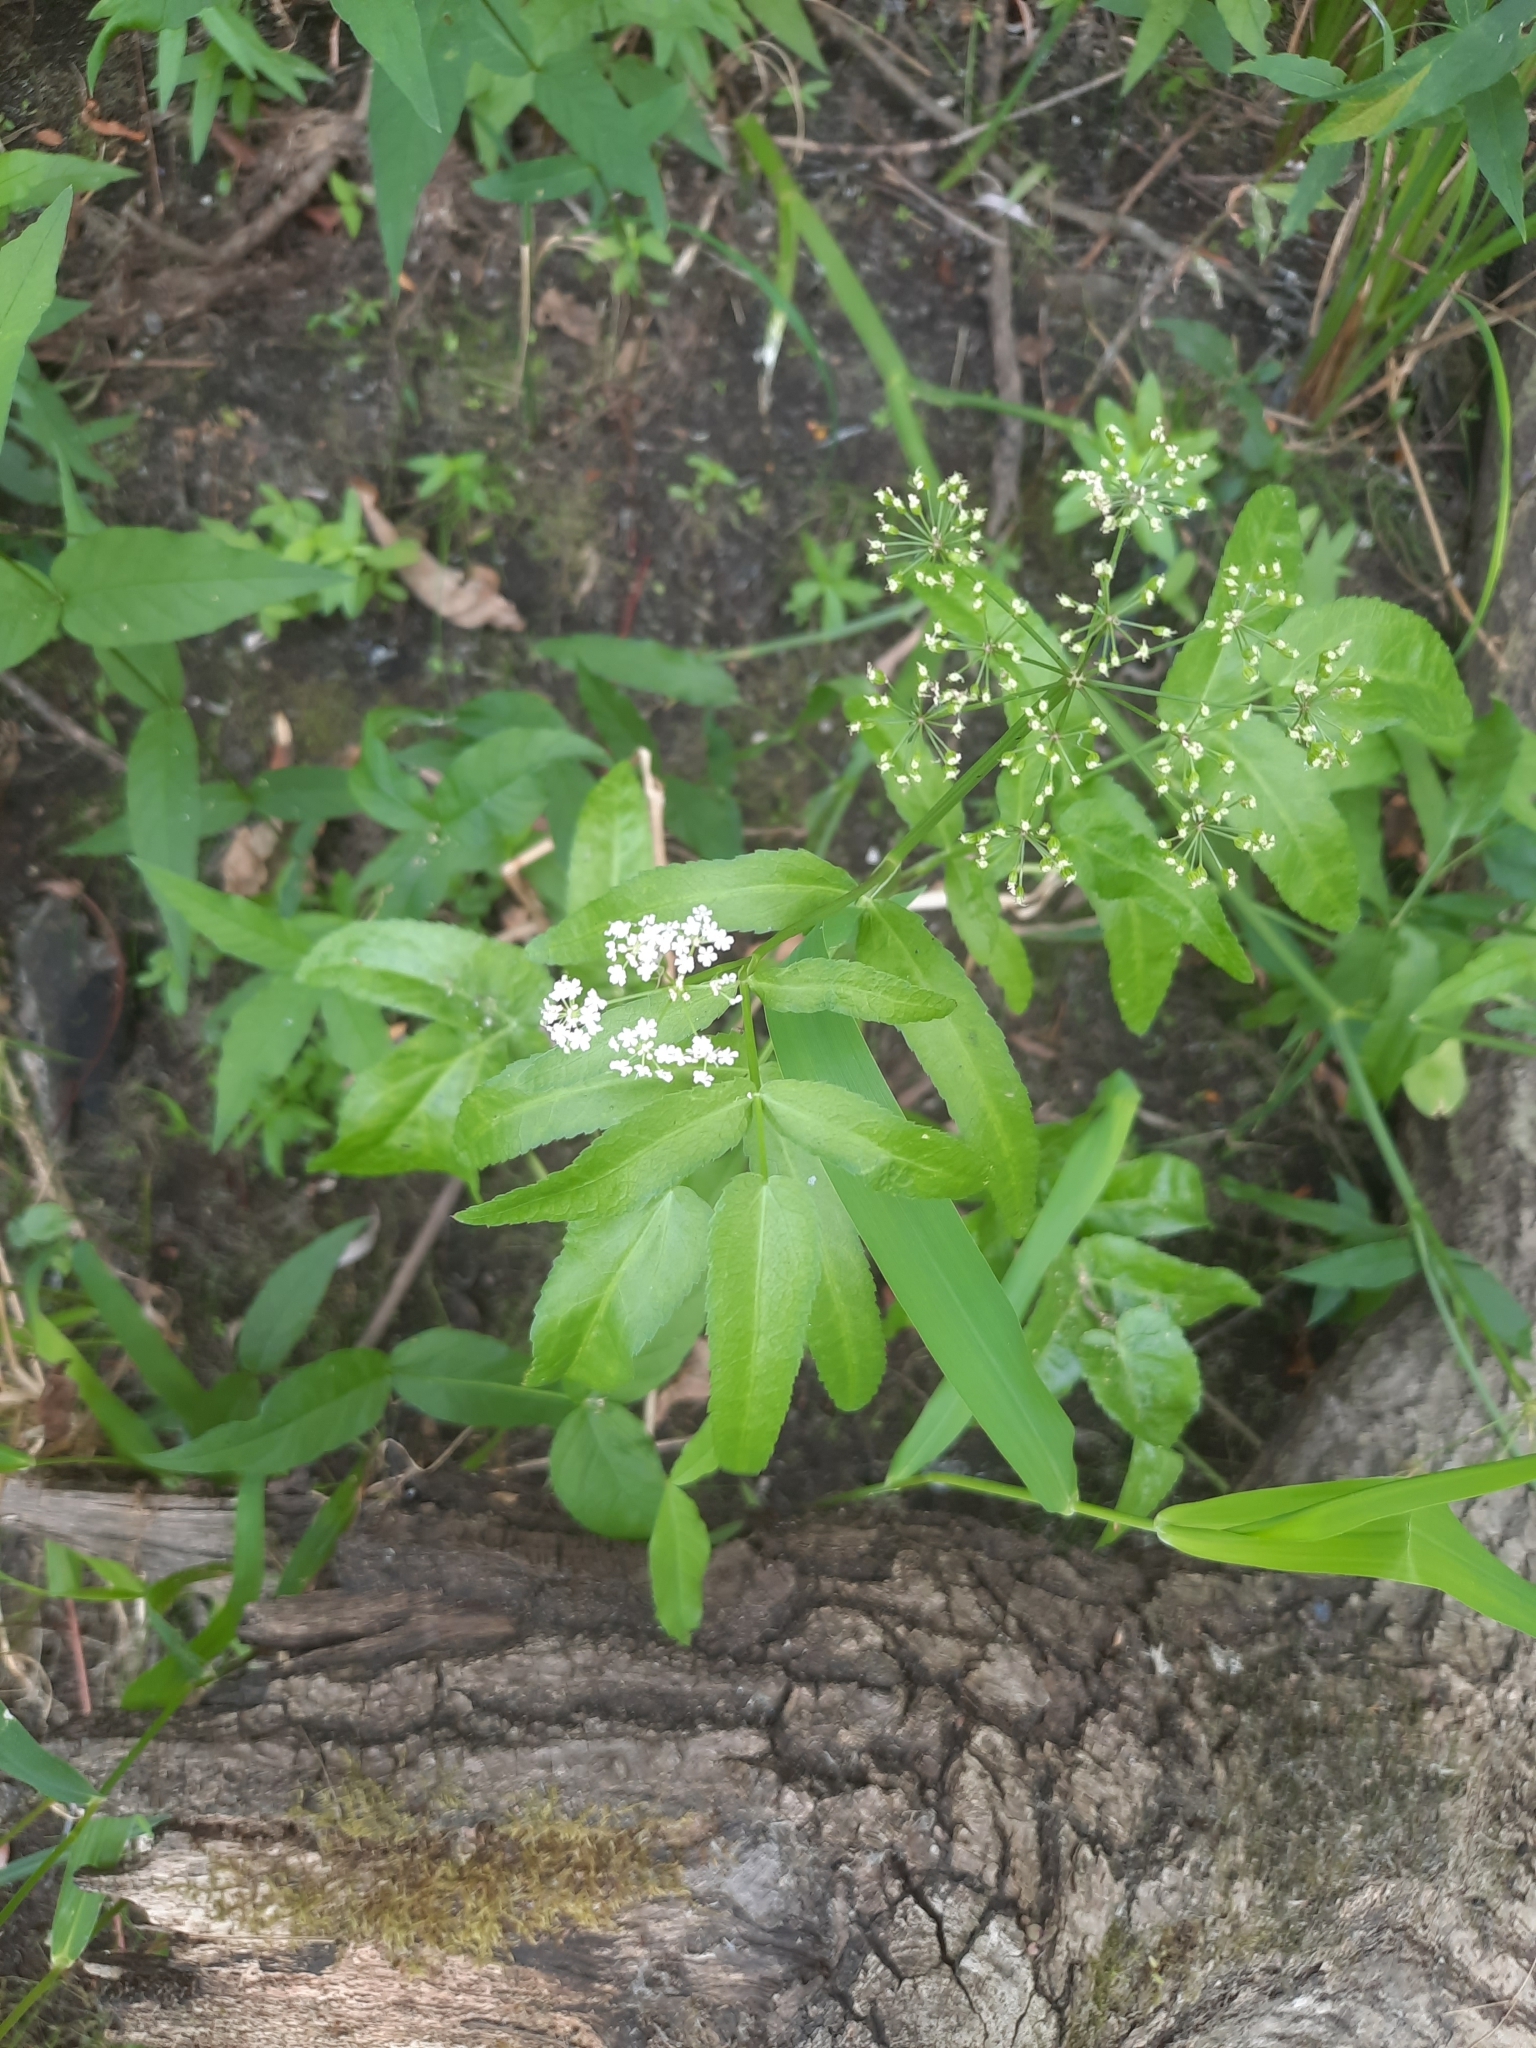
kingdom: Plantae
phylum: Tracheophyta
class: Magnoliopsida
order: Apiales
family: Apiaceae
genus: Sium
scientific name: Sium latifolium
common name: Greater water-parsnip
